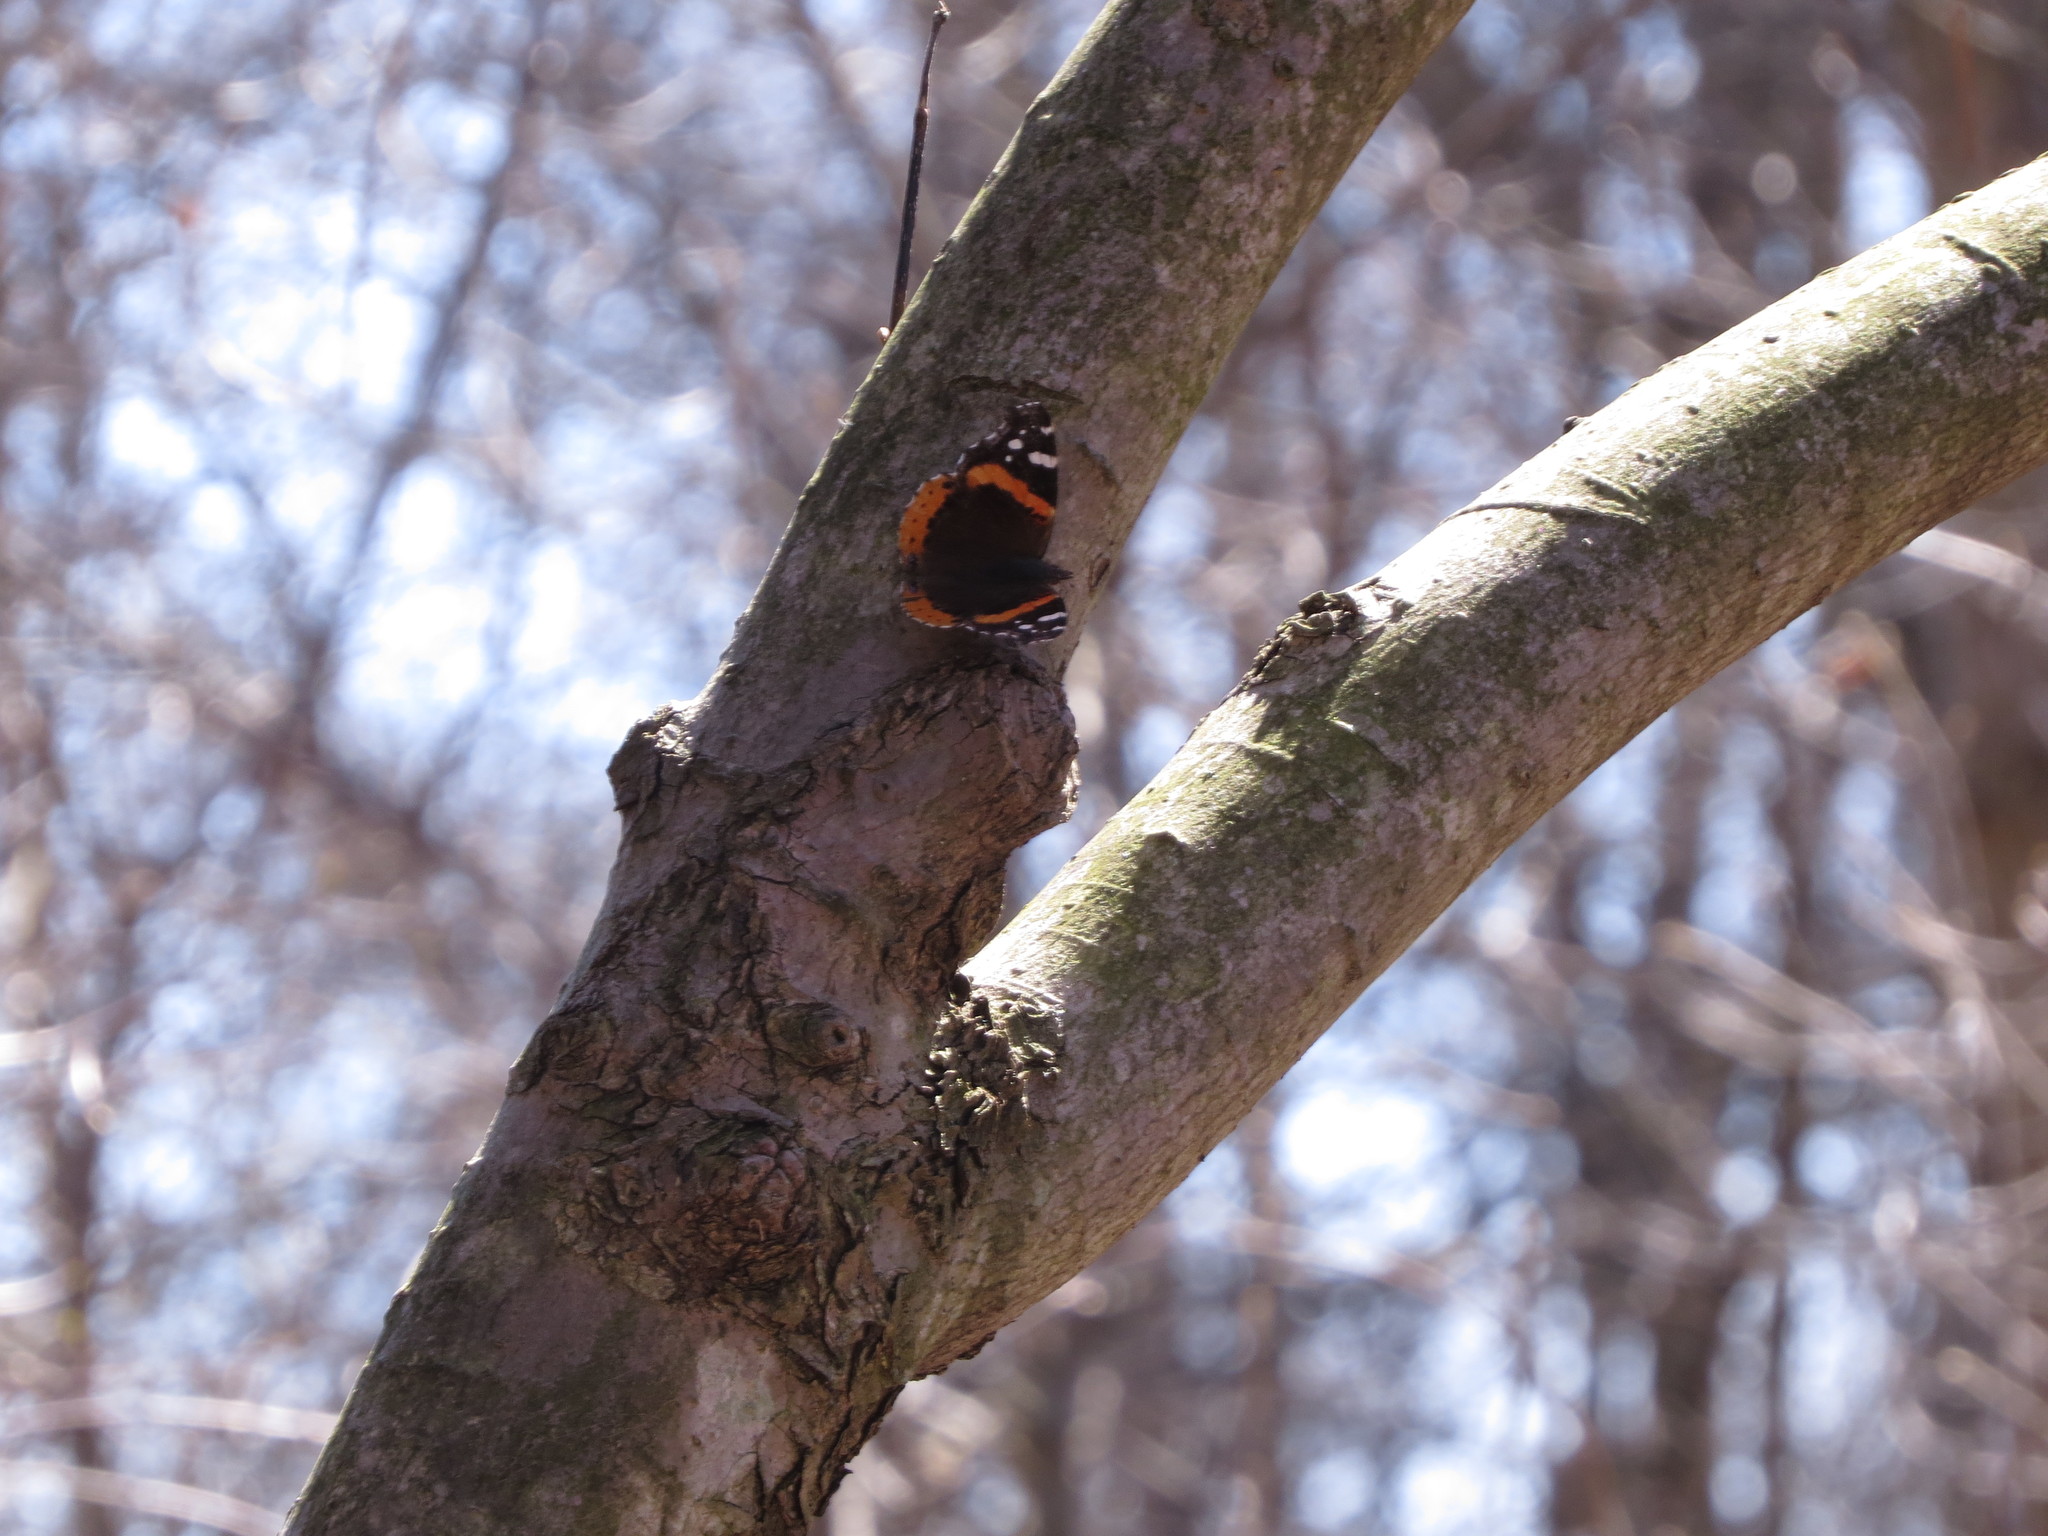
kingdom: Animalia
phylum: Arthropoda
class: Insecta
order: Lepidoptera
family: Nymphalidae
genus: Vanessa
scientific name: Vanessa atalanta
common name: Red admiral
